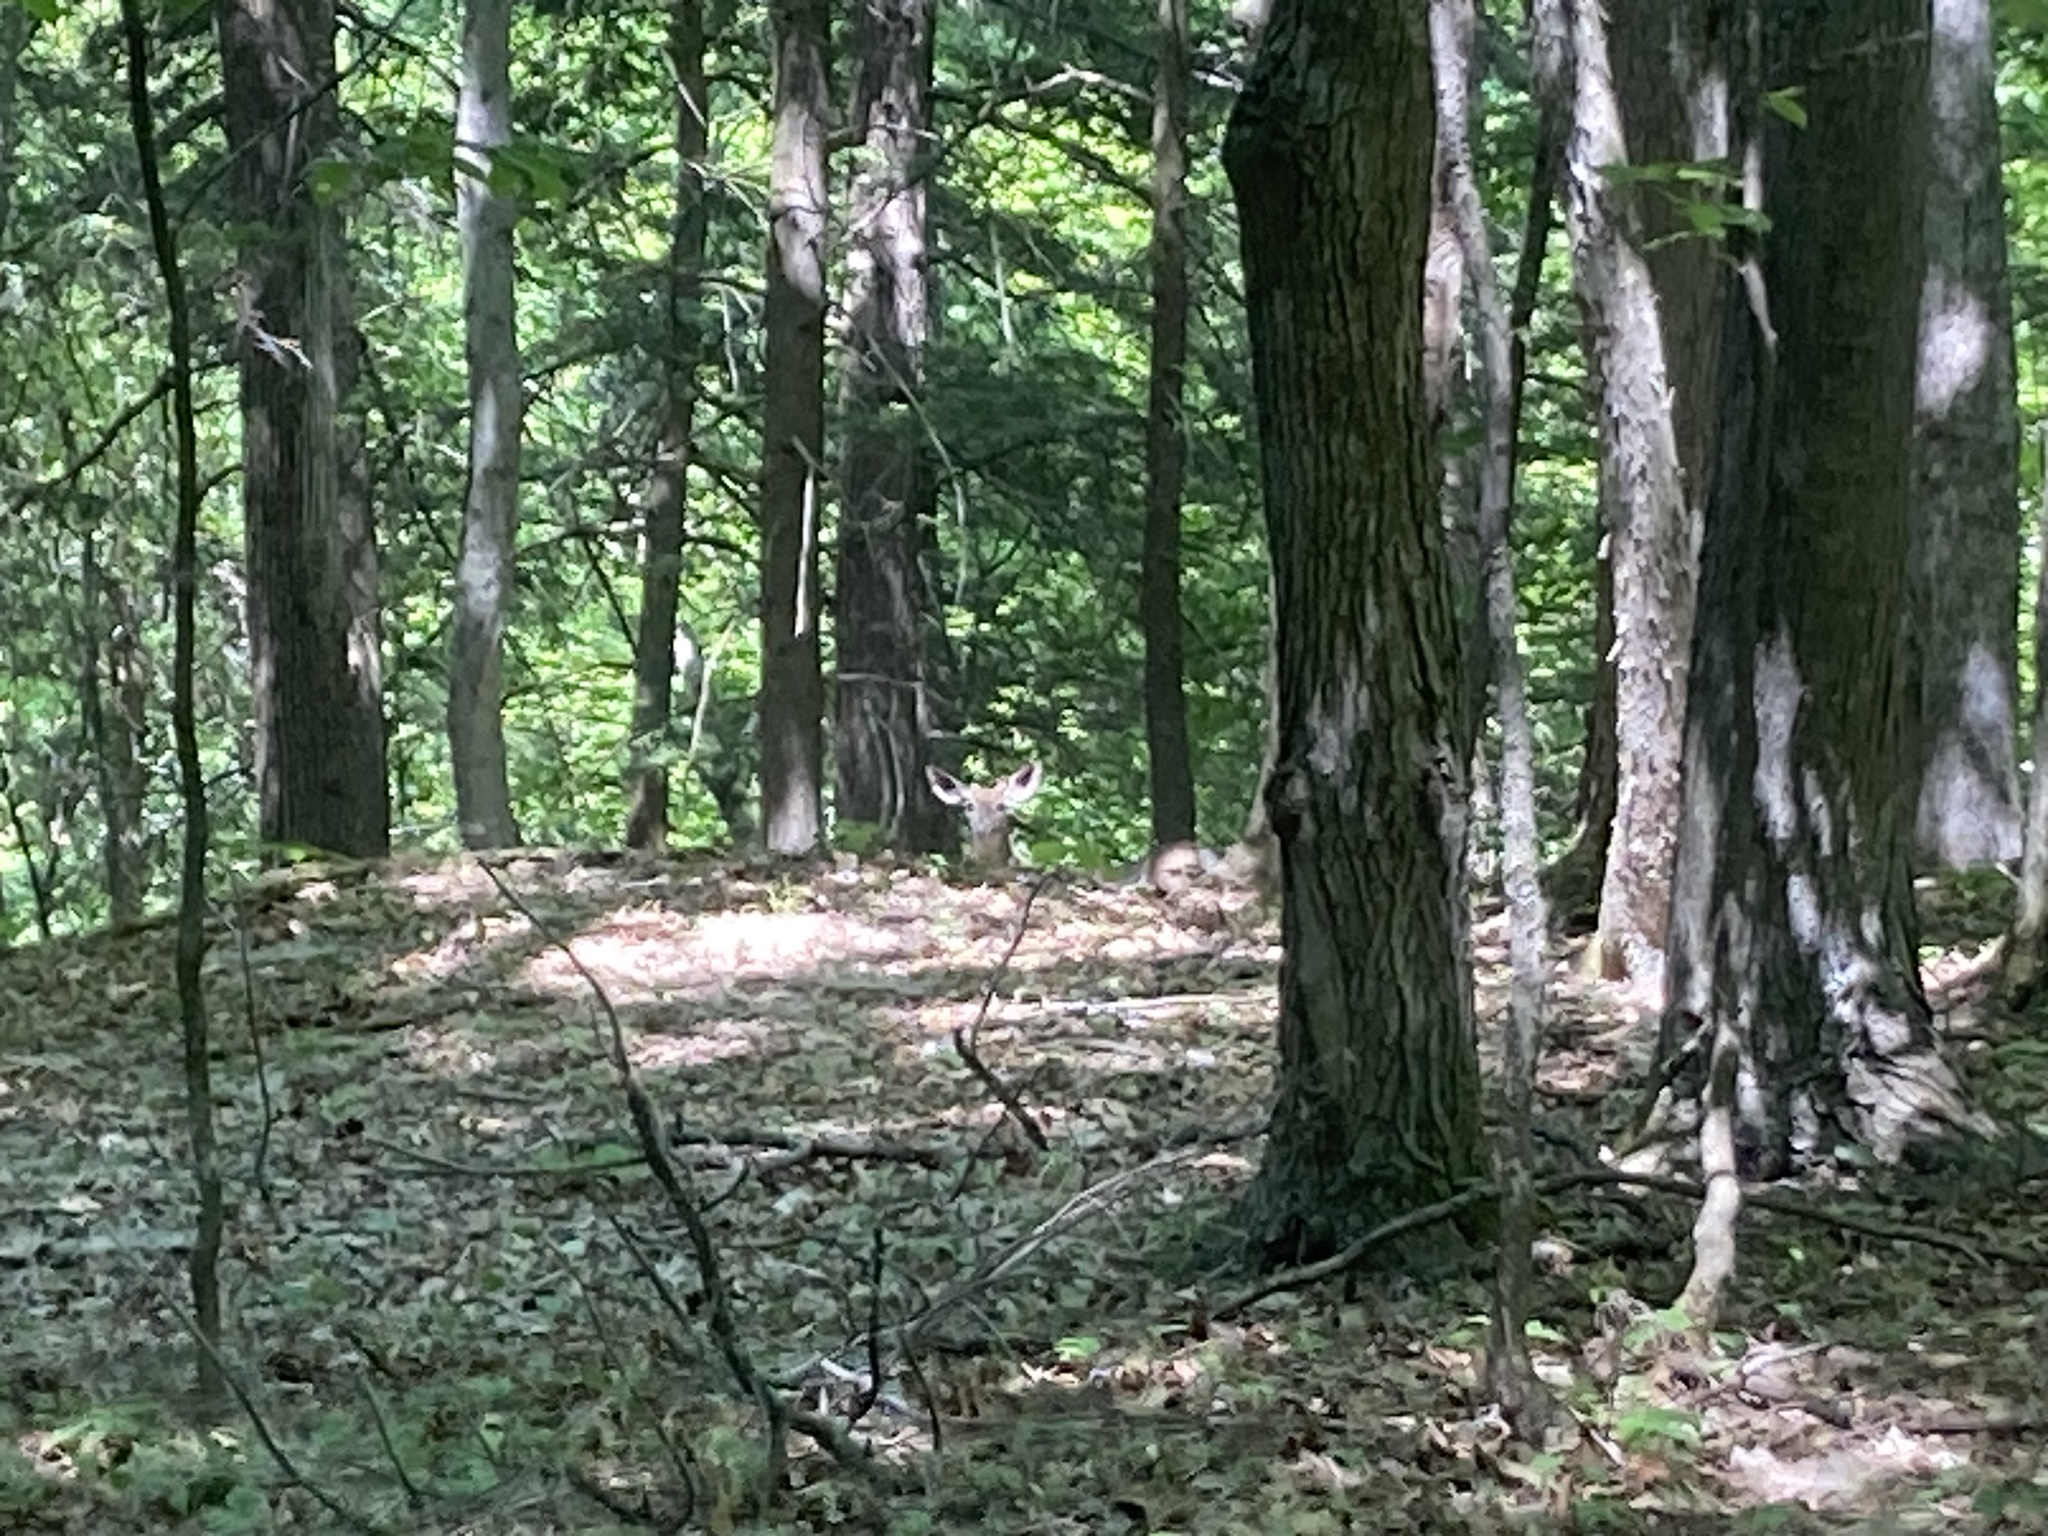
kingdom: Animalia
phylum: Chordata
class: Mammalia
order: Artiodactyla
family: Cervidae
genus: Odocoileus
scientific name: Odocoileus virginianus
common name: White-tailed deer
